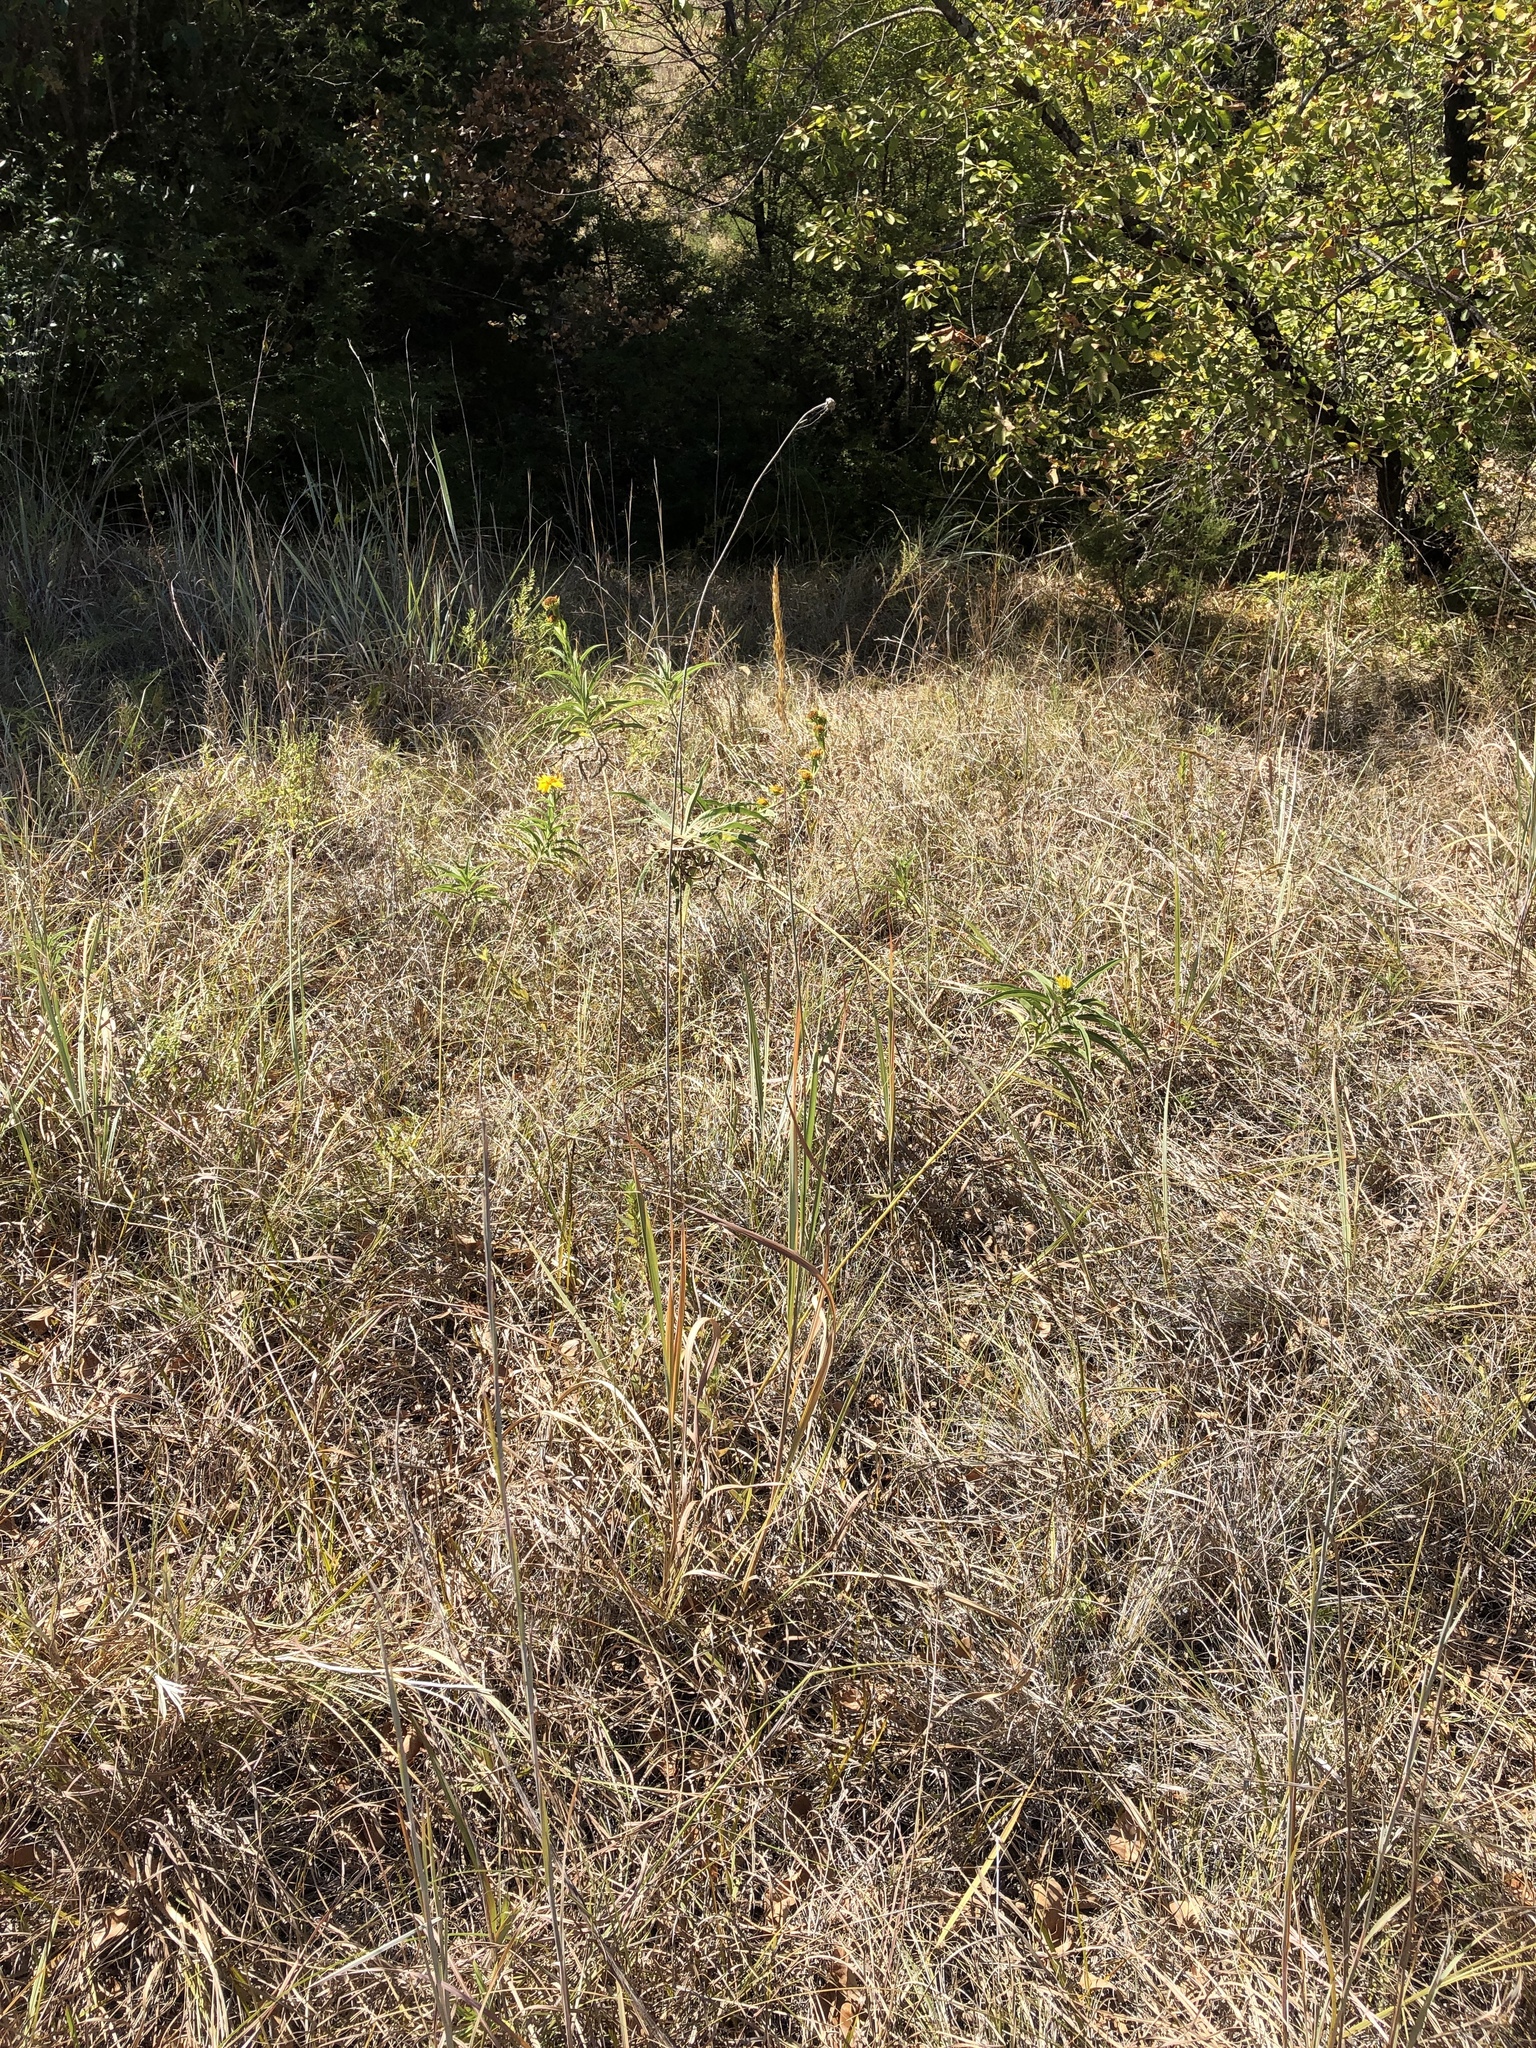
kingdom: Plantae
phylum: Tracheophyta
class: Liliopsida
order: Poales
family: Poaceae
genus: Sorghastrum
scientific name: Sorghastrum nutans
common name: Indian grass
